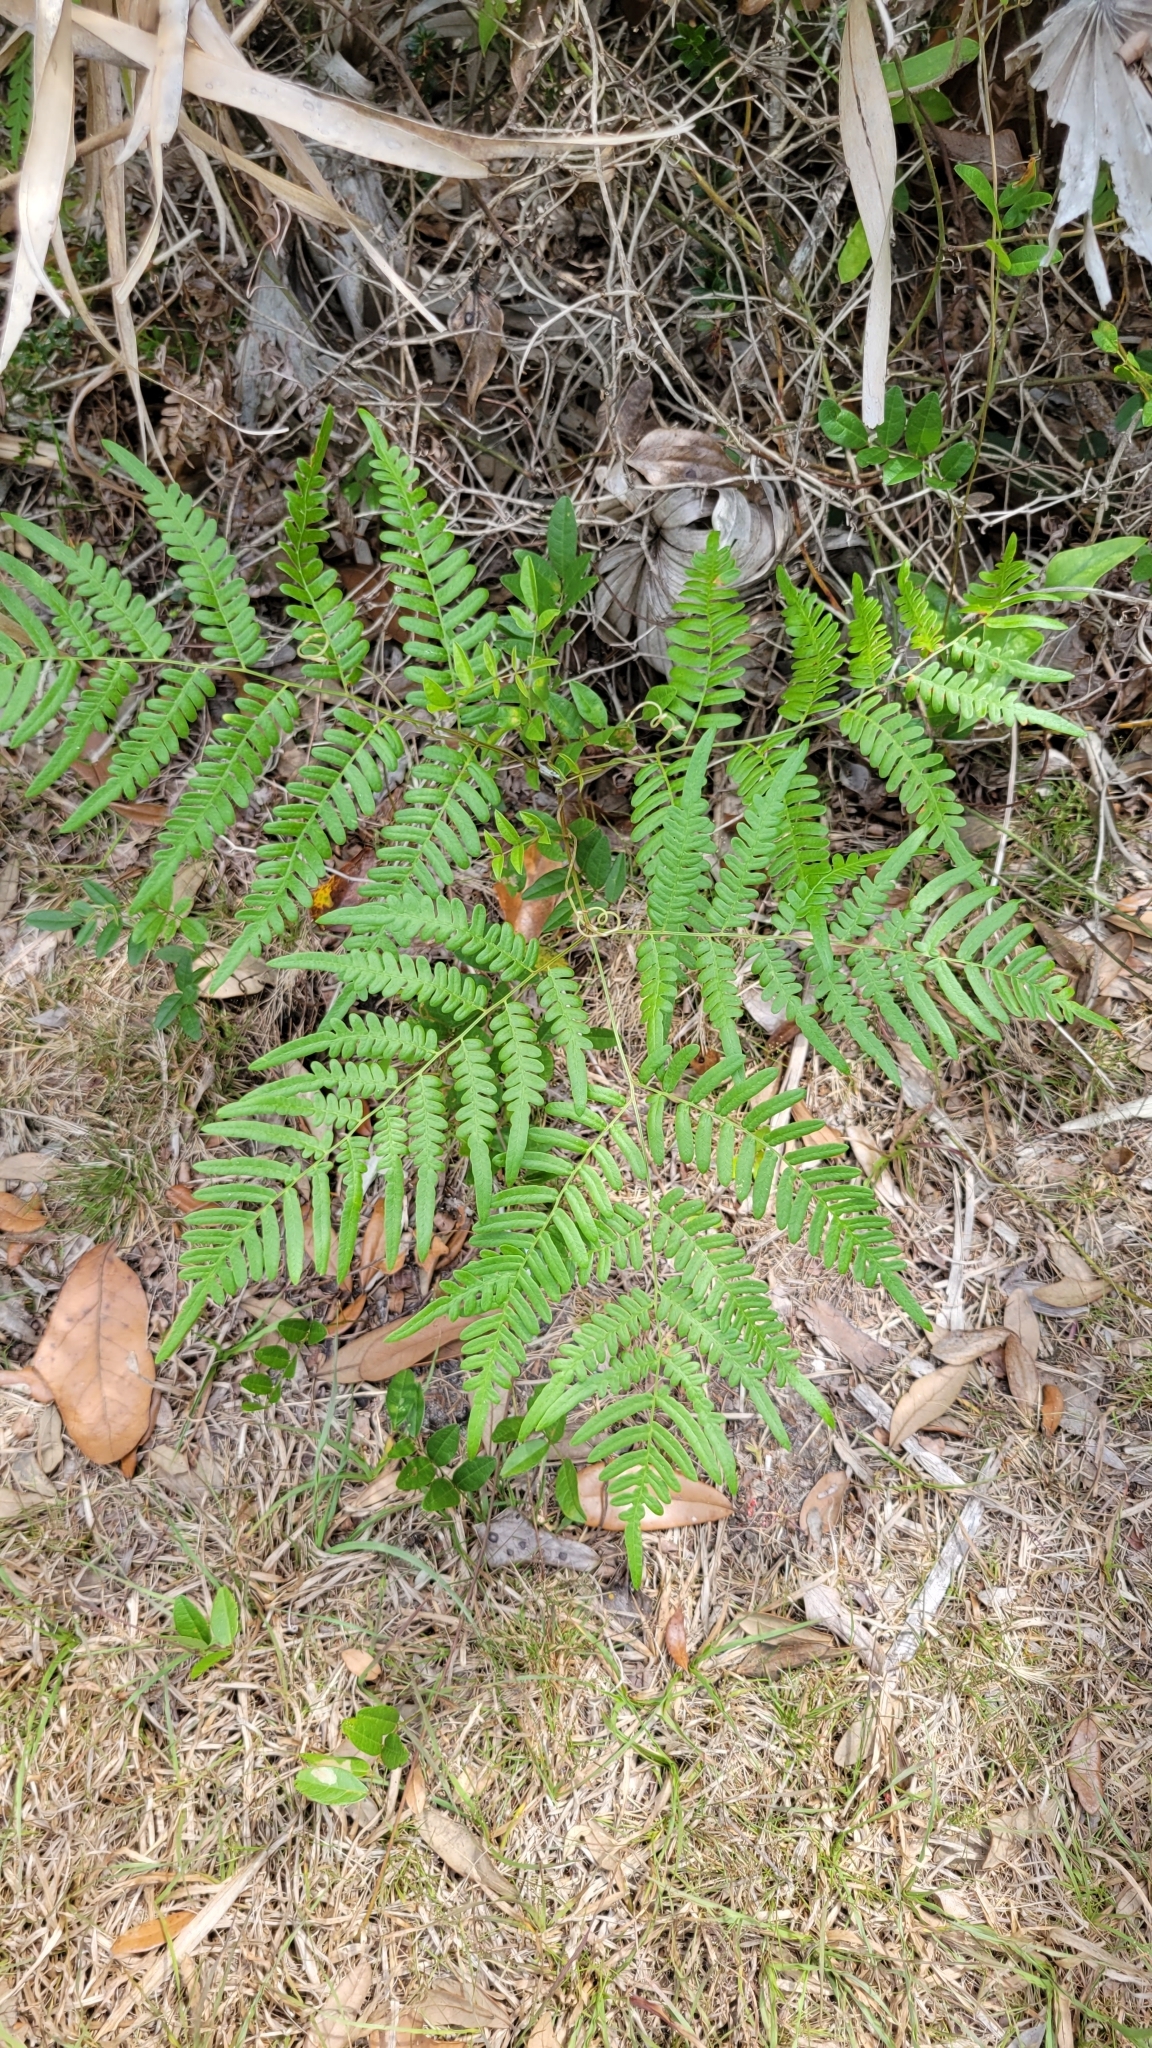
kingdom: Plantae
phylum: Tracheophyta
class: Polypodiopsida
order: Polypodiales
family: Dennstaedtiaceae
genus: Pteridium
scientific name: Pteridium
